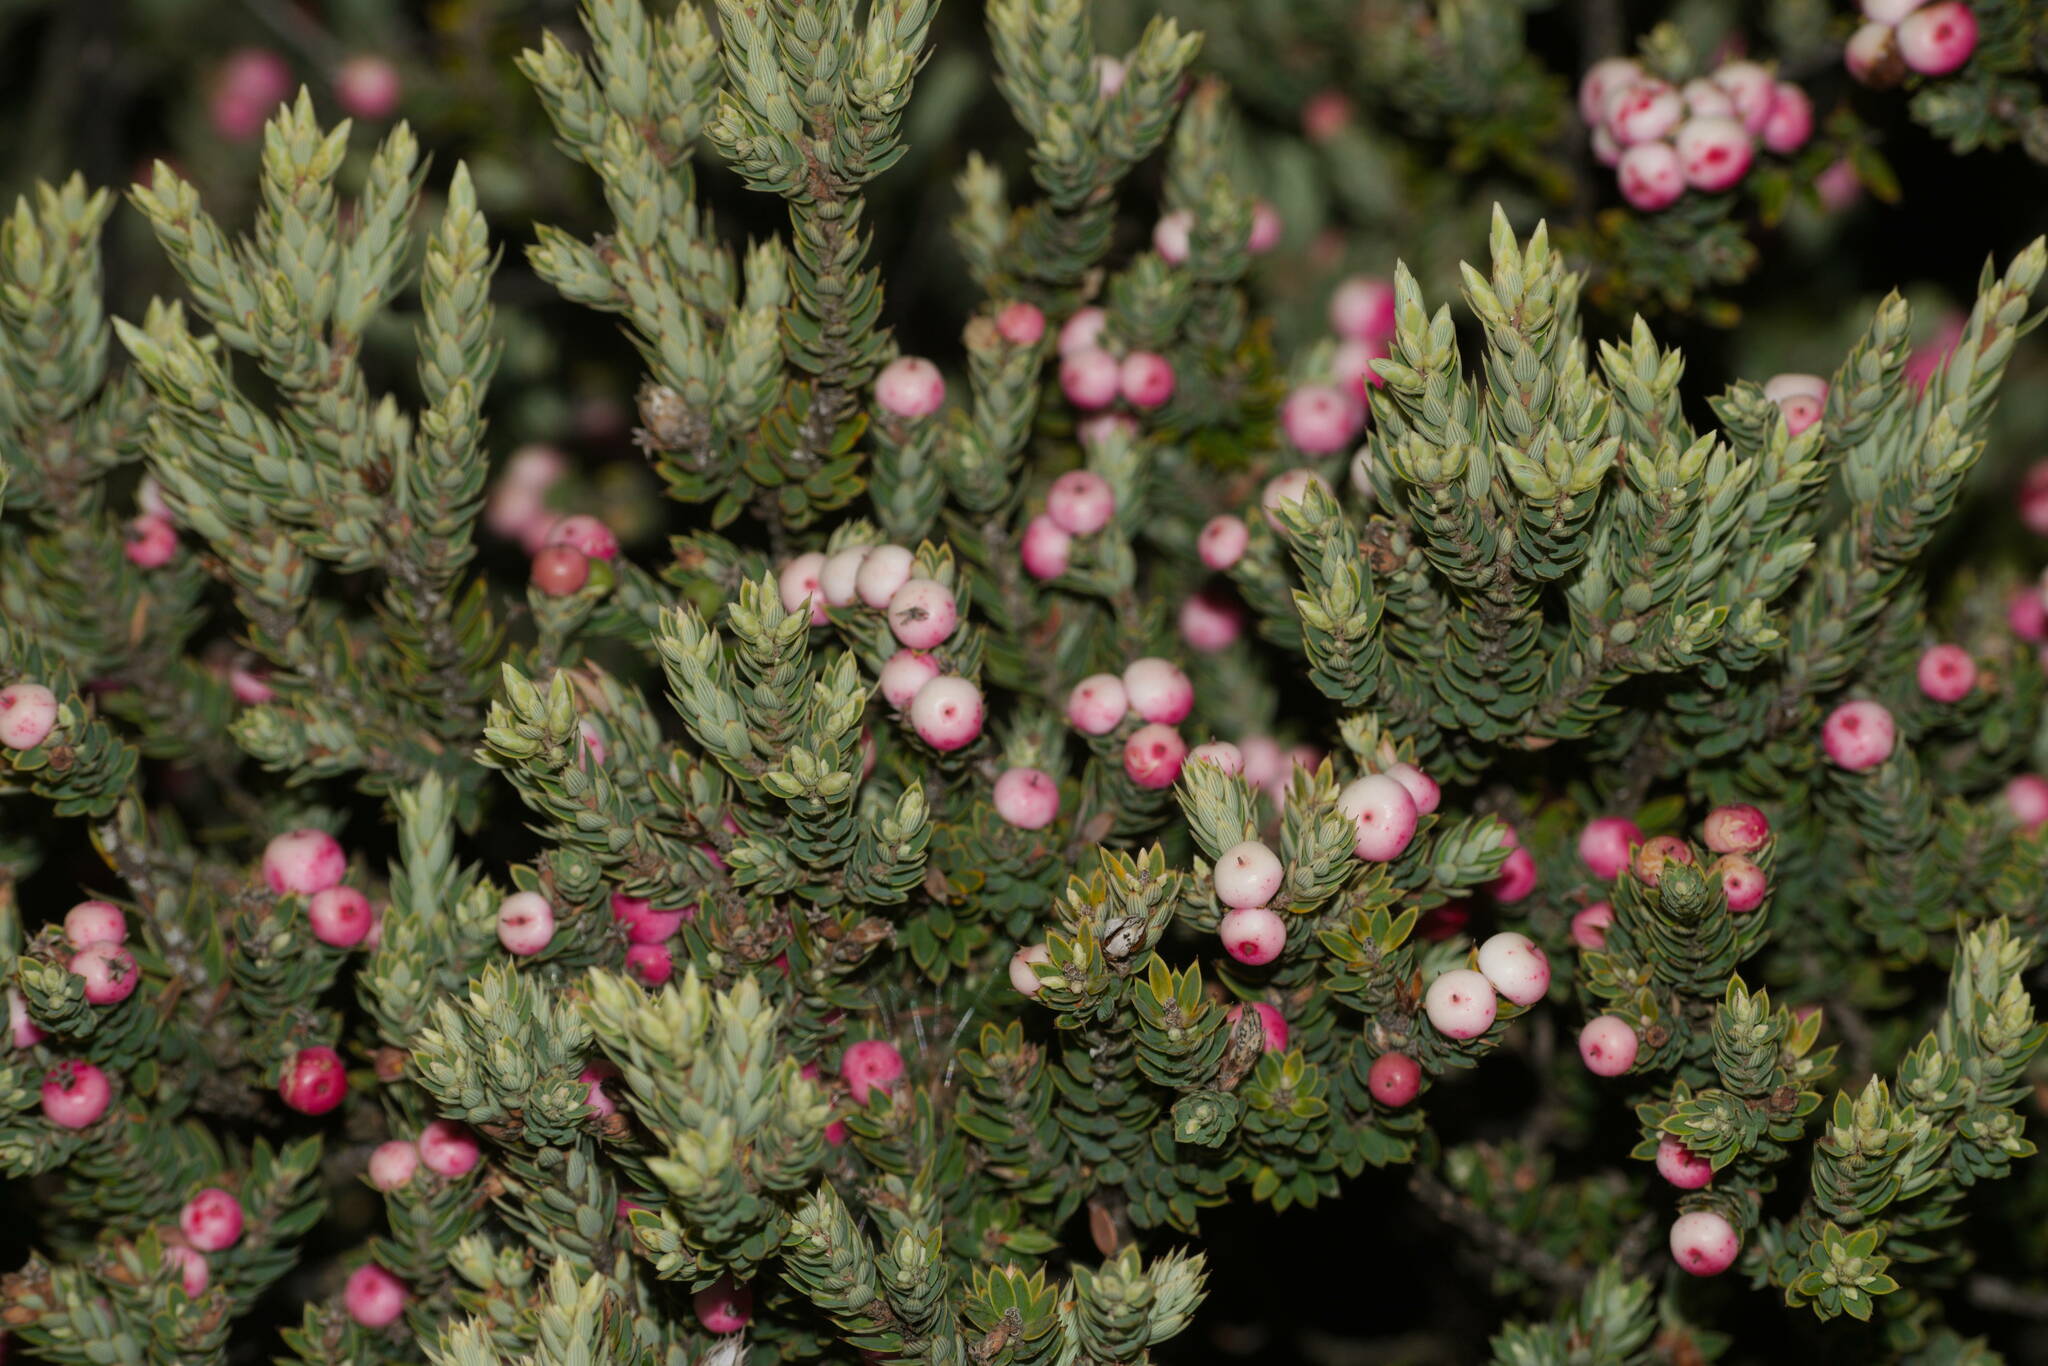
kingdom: Plantae
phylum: Tracheophyta
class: Magnoliopsida
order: Ericales
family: Ericaceae
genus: Leptecophylla
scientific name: Leptecophylla tameiameiae
